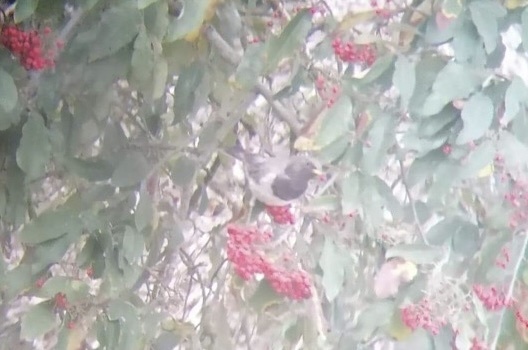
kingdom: Animalia
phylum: Chordata
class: Aves
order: Passeriformes
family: Turdidae
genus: Turdus
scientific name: Turdus atrogularis
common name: Black-throated thrush
